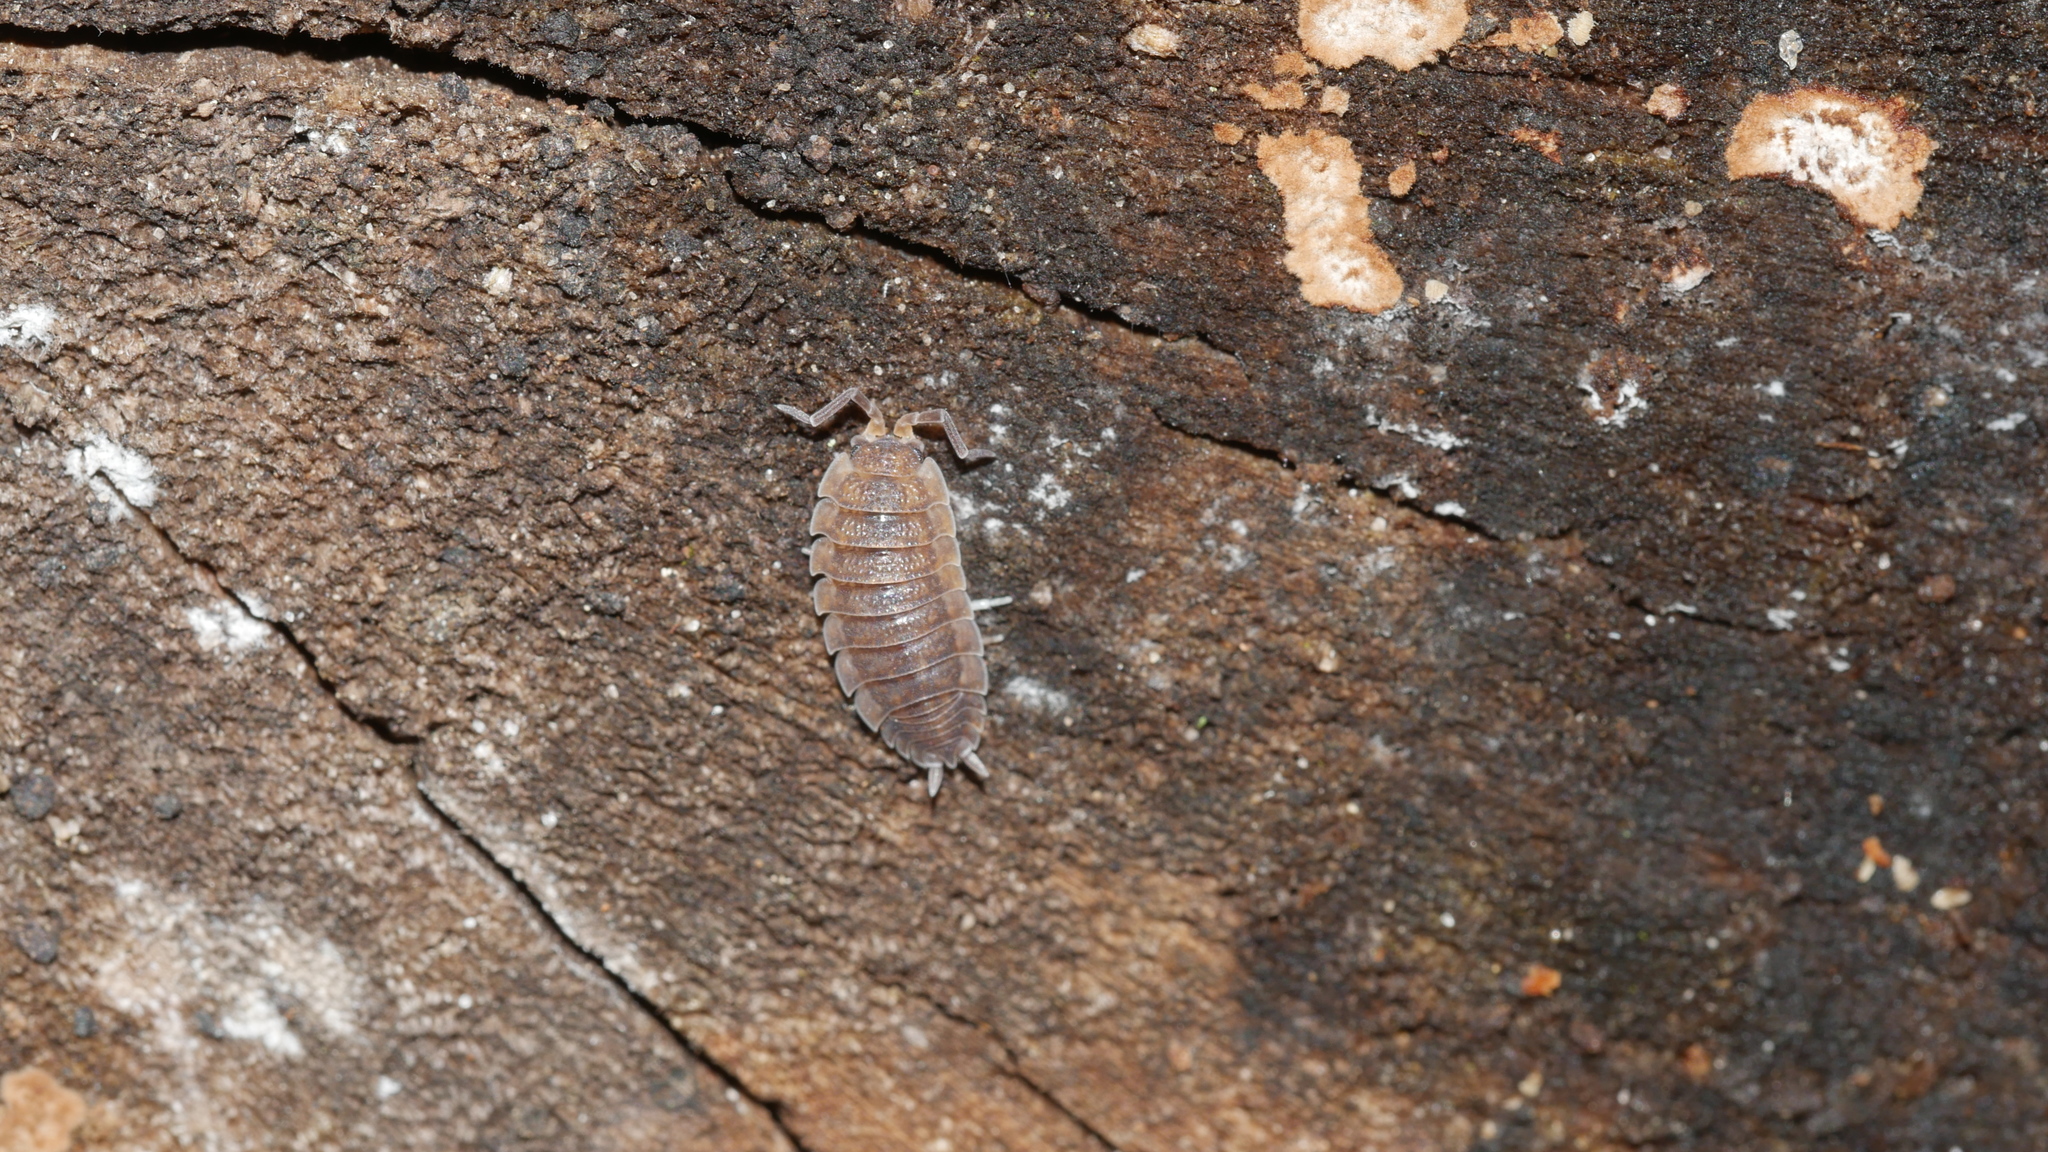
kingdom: Animalia
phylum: Arthropoda
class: Malacostraca
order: Isopoda
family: Porcellionidae
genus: Porcellio
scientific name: Porcellio scaber
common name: Common rough woodlouse
